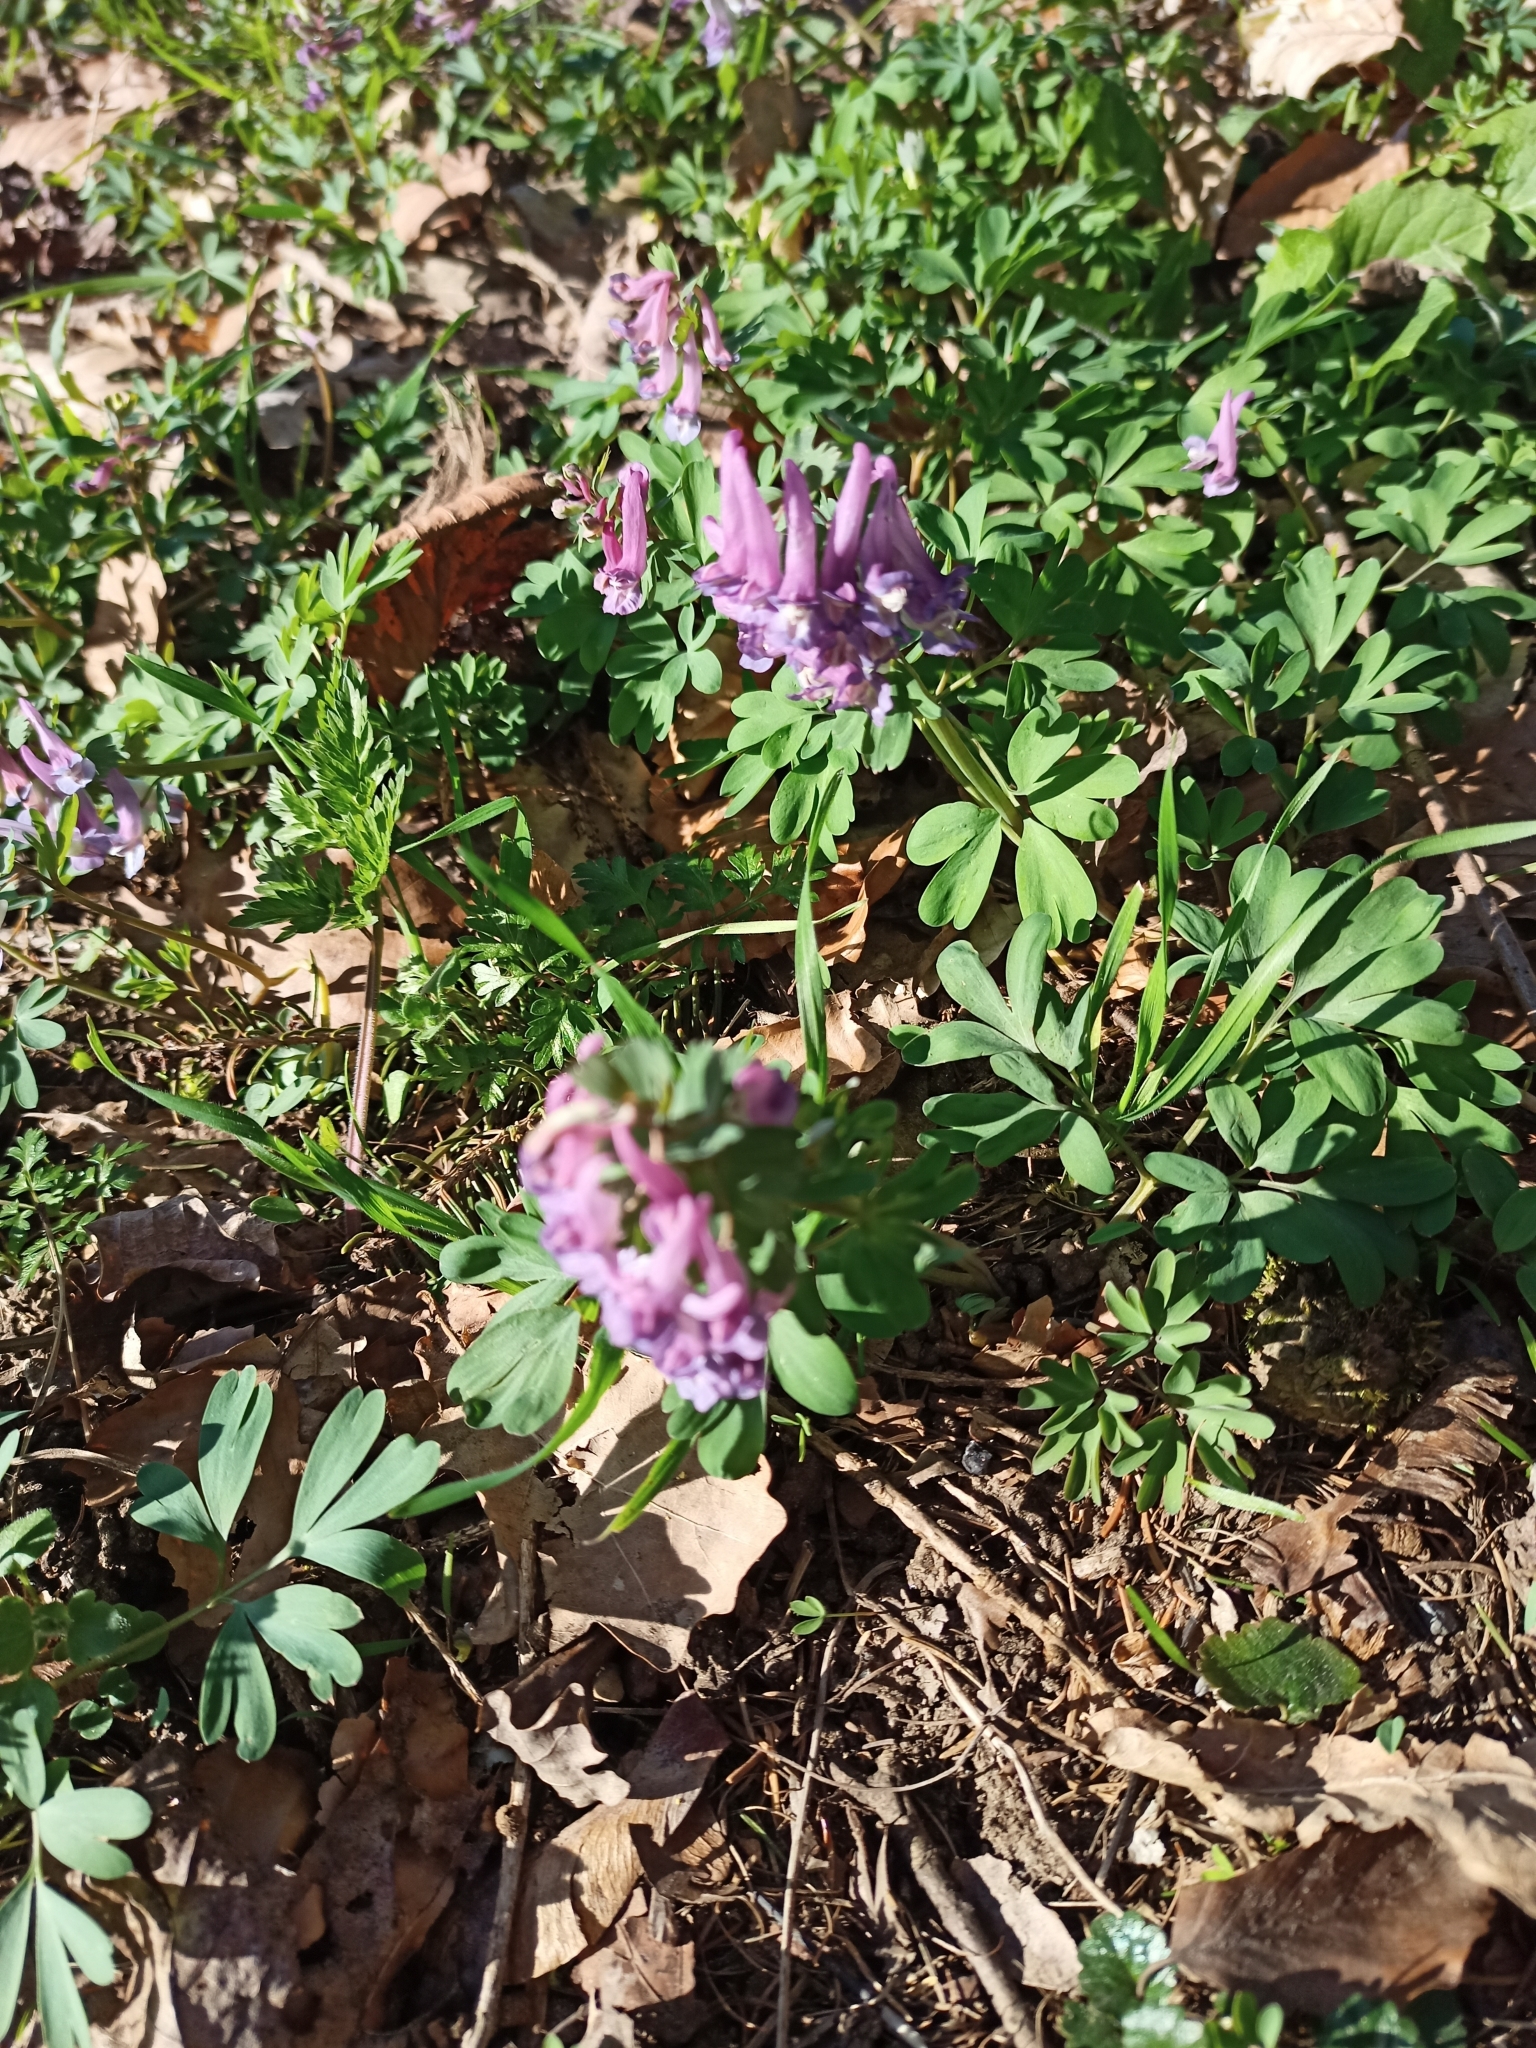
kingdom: Plantae
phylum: Tracheophyta
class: Magnoliopsida
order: Ranunculales
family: Papaveraceae
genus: Corydalis
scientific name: Corydalis solida
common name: Bird-in-a-bush
